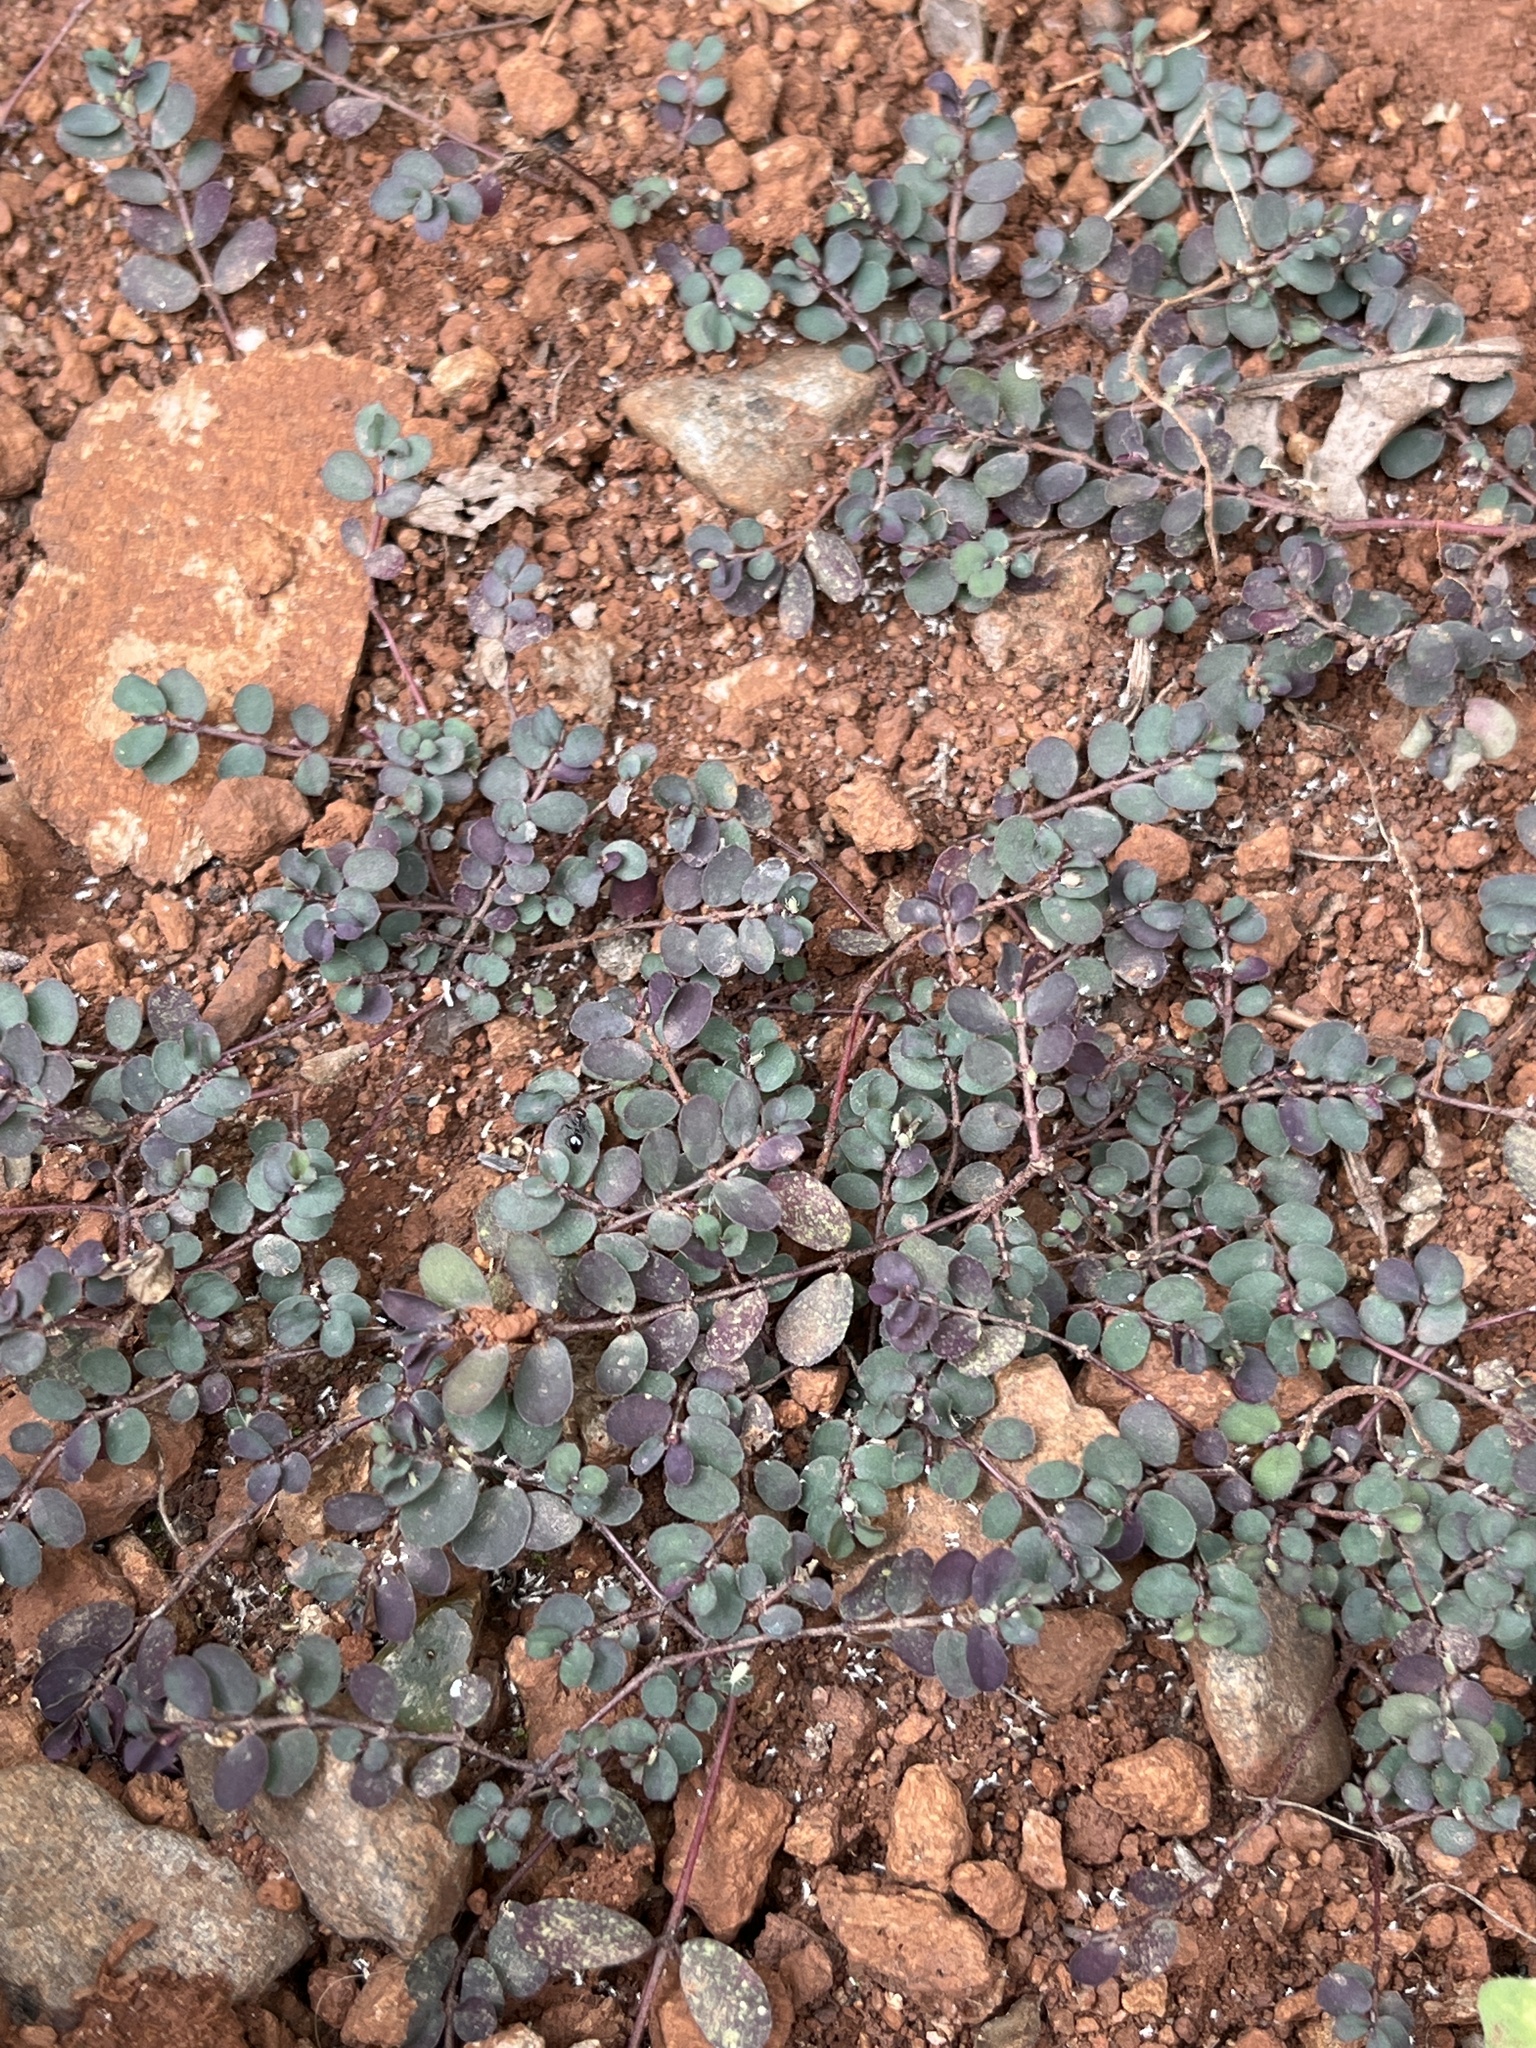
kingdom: Plantae
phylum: Tracheophyta
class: Magnoliopsida
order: Malpighiales
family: Euphorbiaceae
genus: Euphorbia
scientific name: Euphorbia prostrata
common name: Prostrate sandmat
